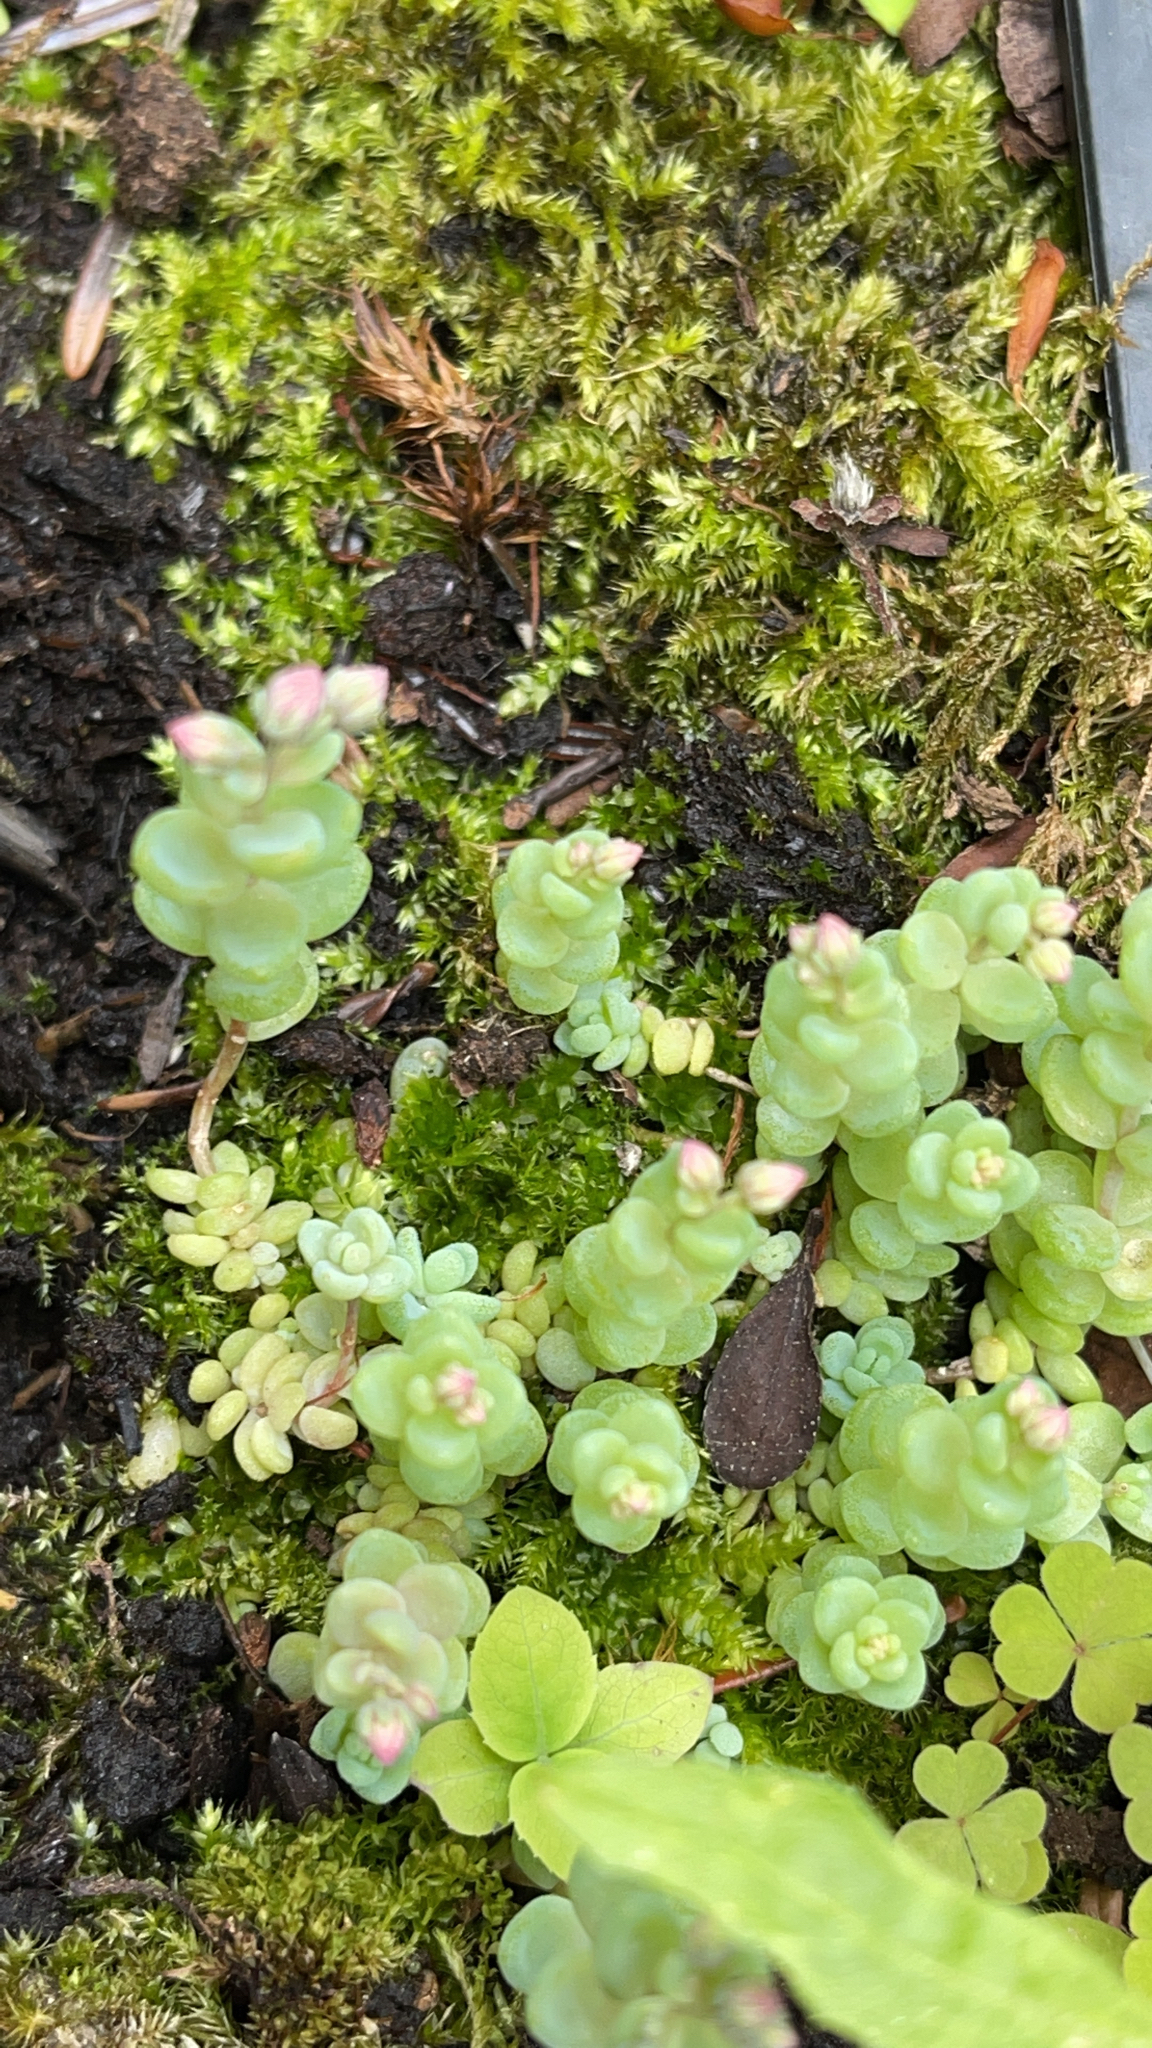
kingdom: Plantae
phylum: Tracheophyta
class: Magnoliopsida
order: Saxifragales
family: Crassulaceae
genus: Sedum
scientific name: Sedum dasyphyllum
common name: Thick-leaf stonecrop
